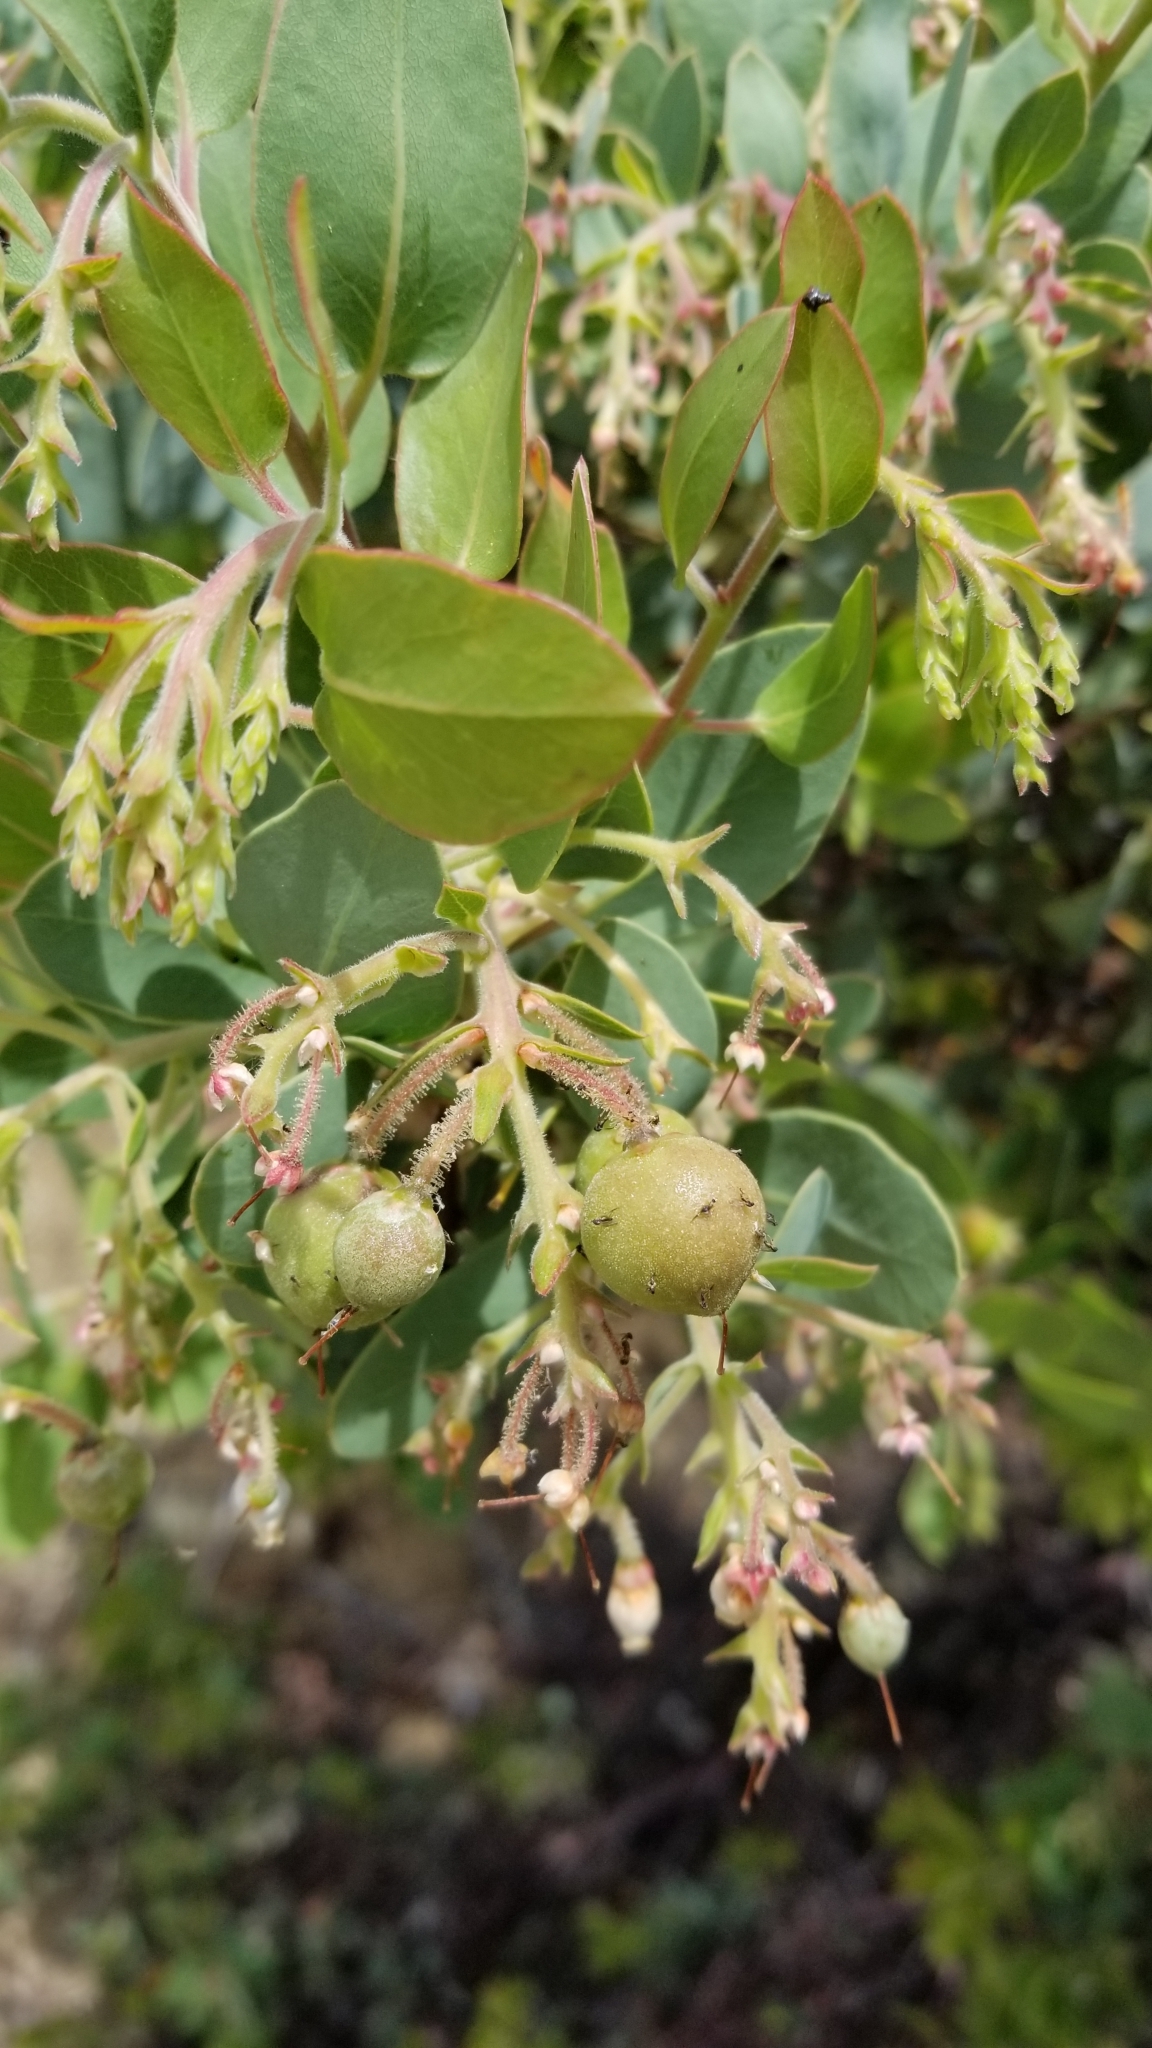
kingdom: Plantae
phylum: Tracheophyta
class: Magnoliopsida
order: Ericales
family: Ericaceae
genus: Arctostaphylos
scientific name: Arctostaphylos glauca
